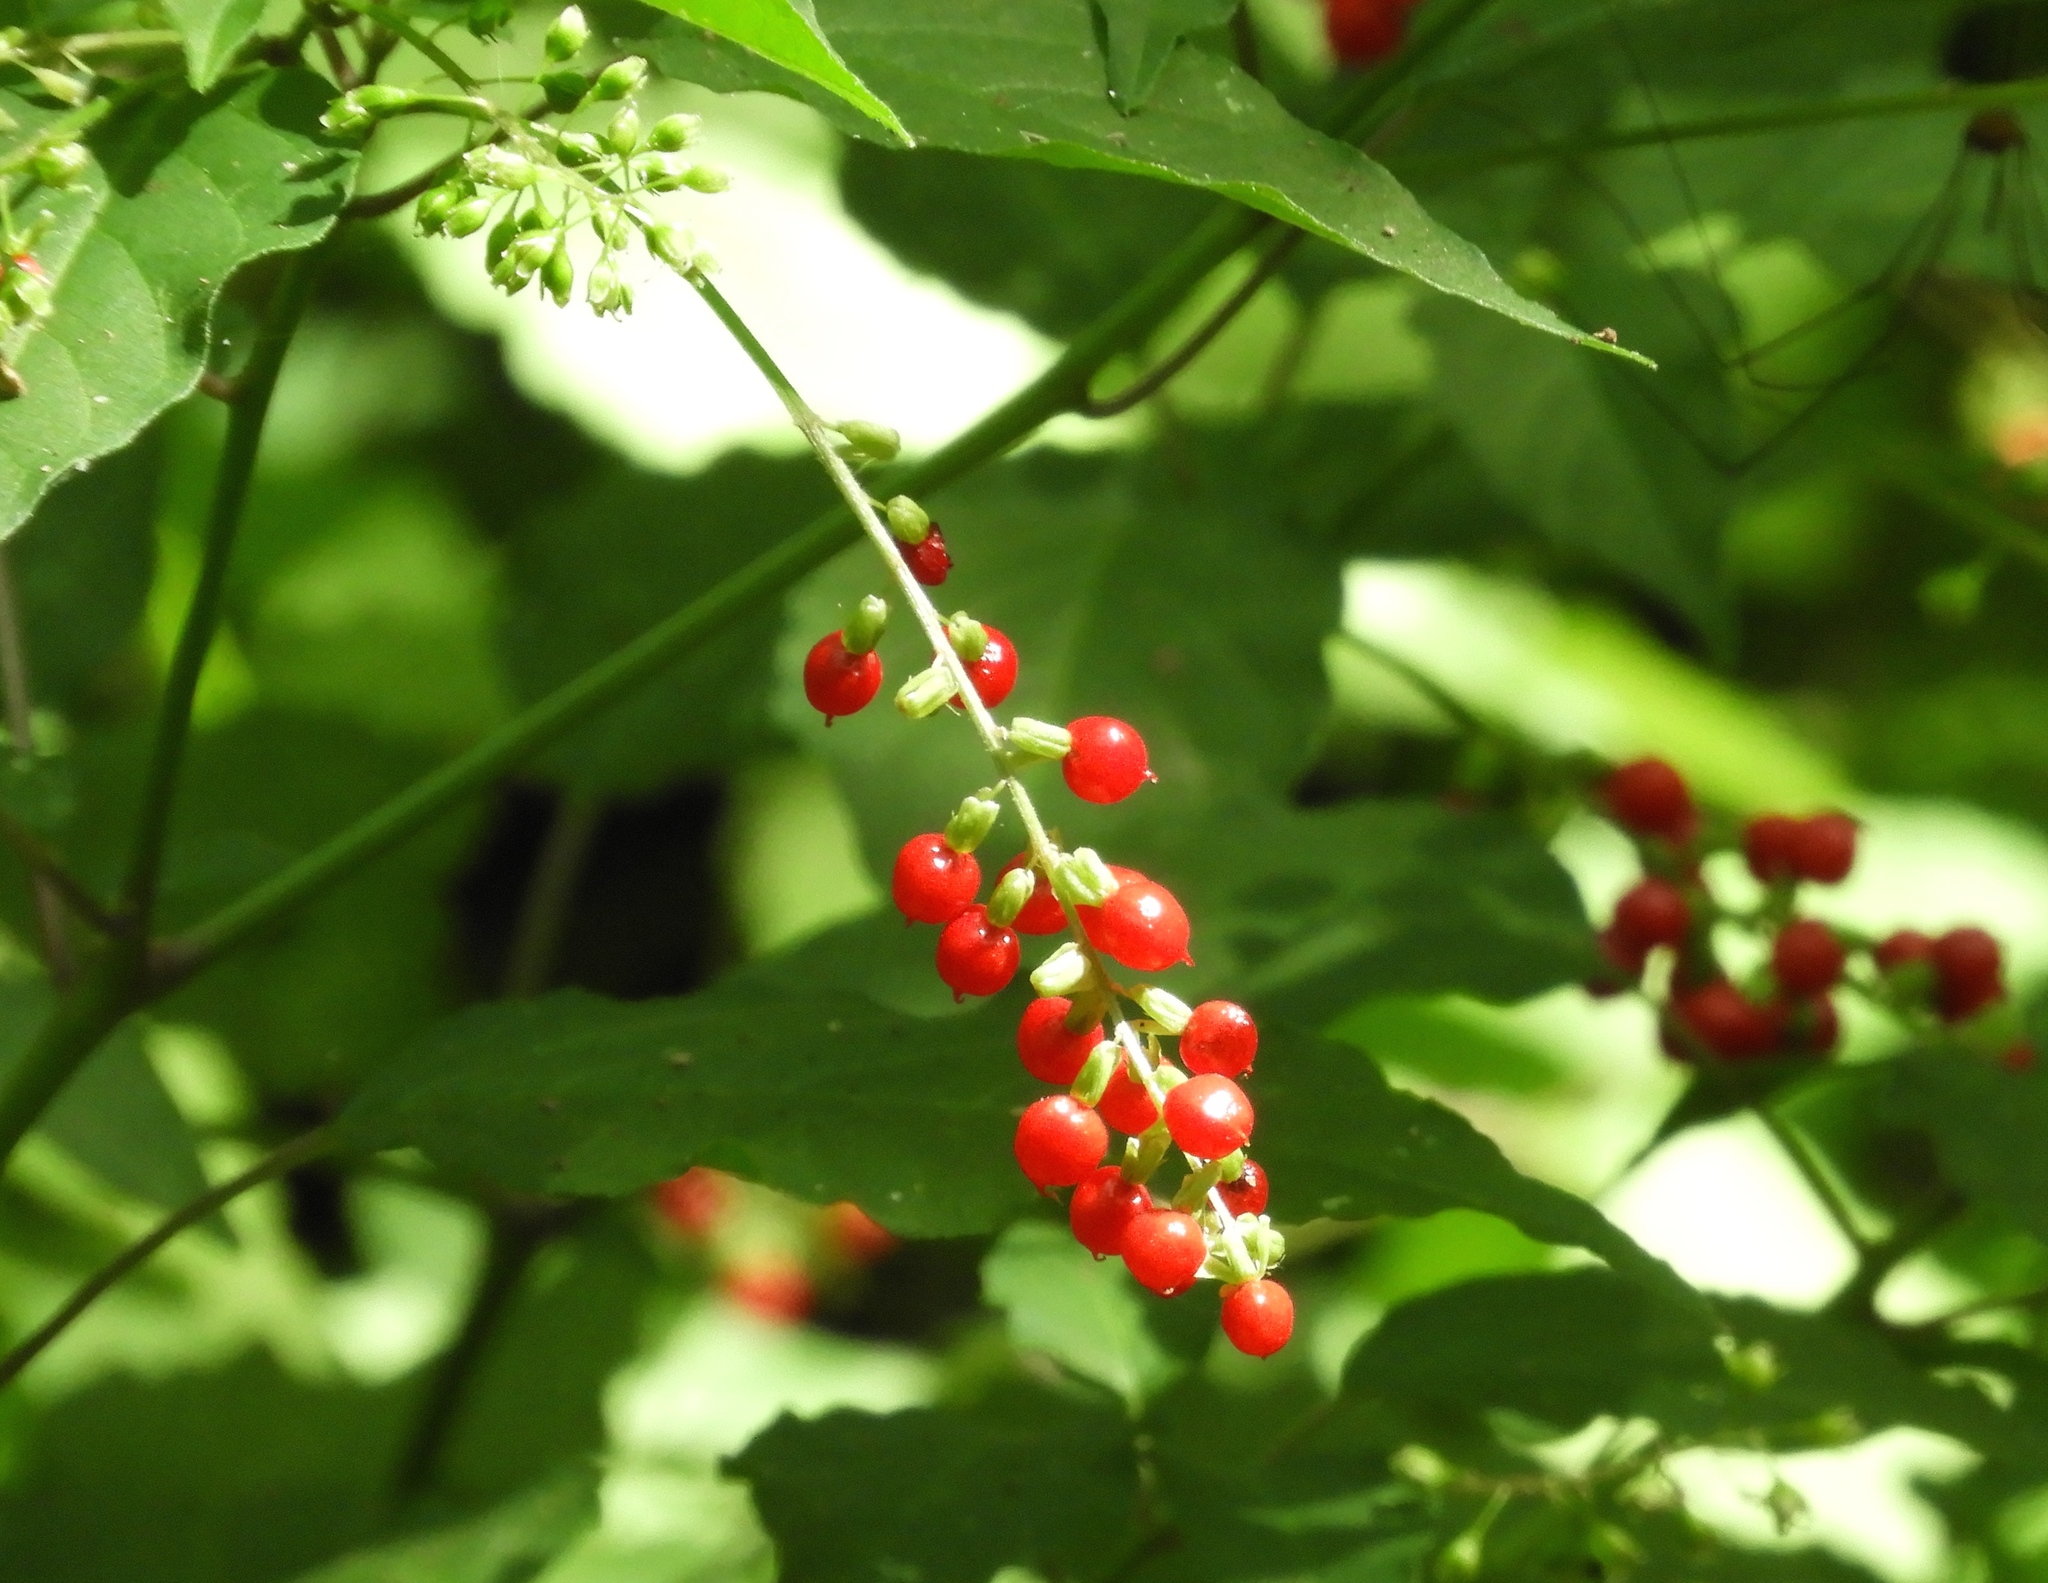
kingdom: Plantae
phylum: Tracheophyta
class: Magnoliopsida
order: Caryophyllales
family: Phytolaccaceae
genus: Rivina
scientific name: Rivina humilis
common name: Rougeplant
